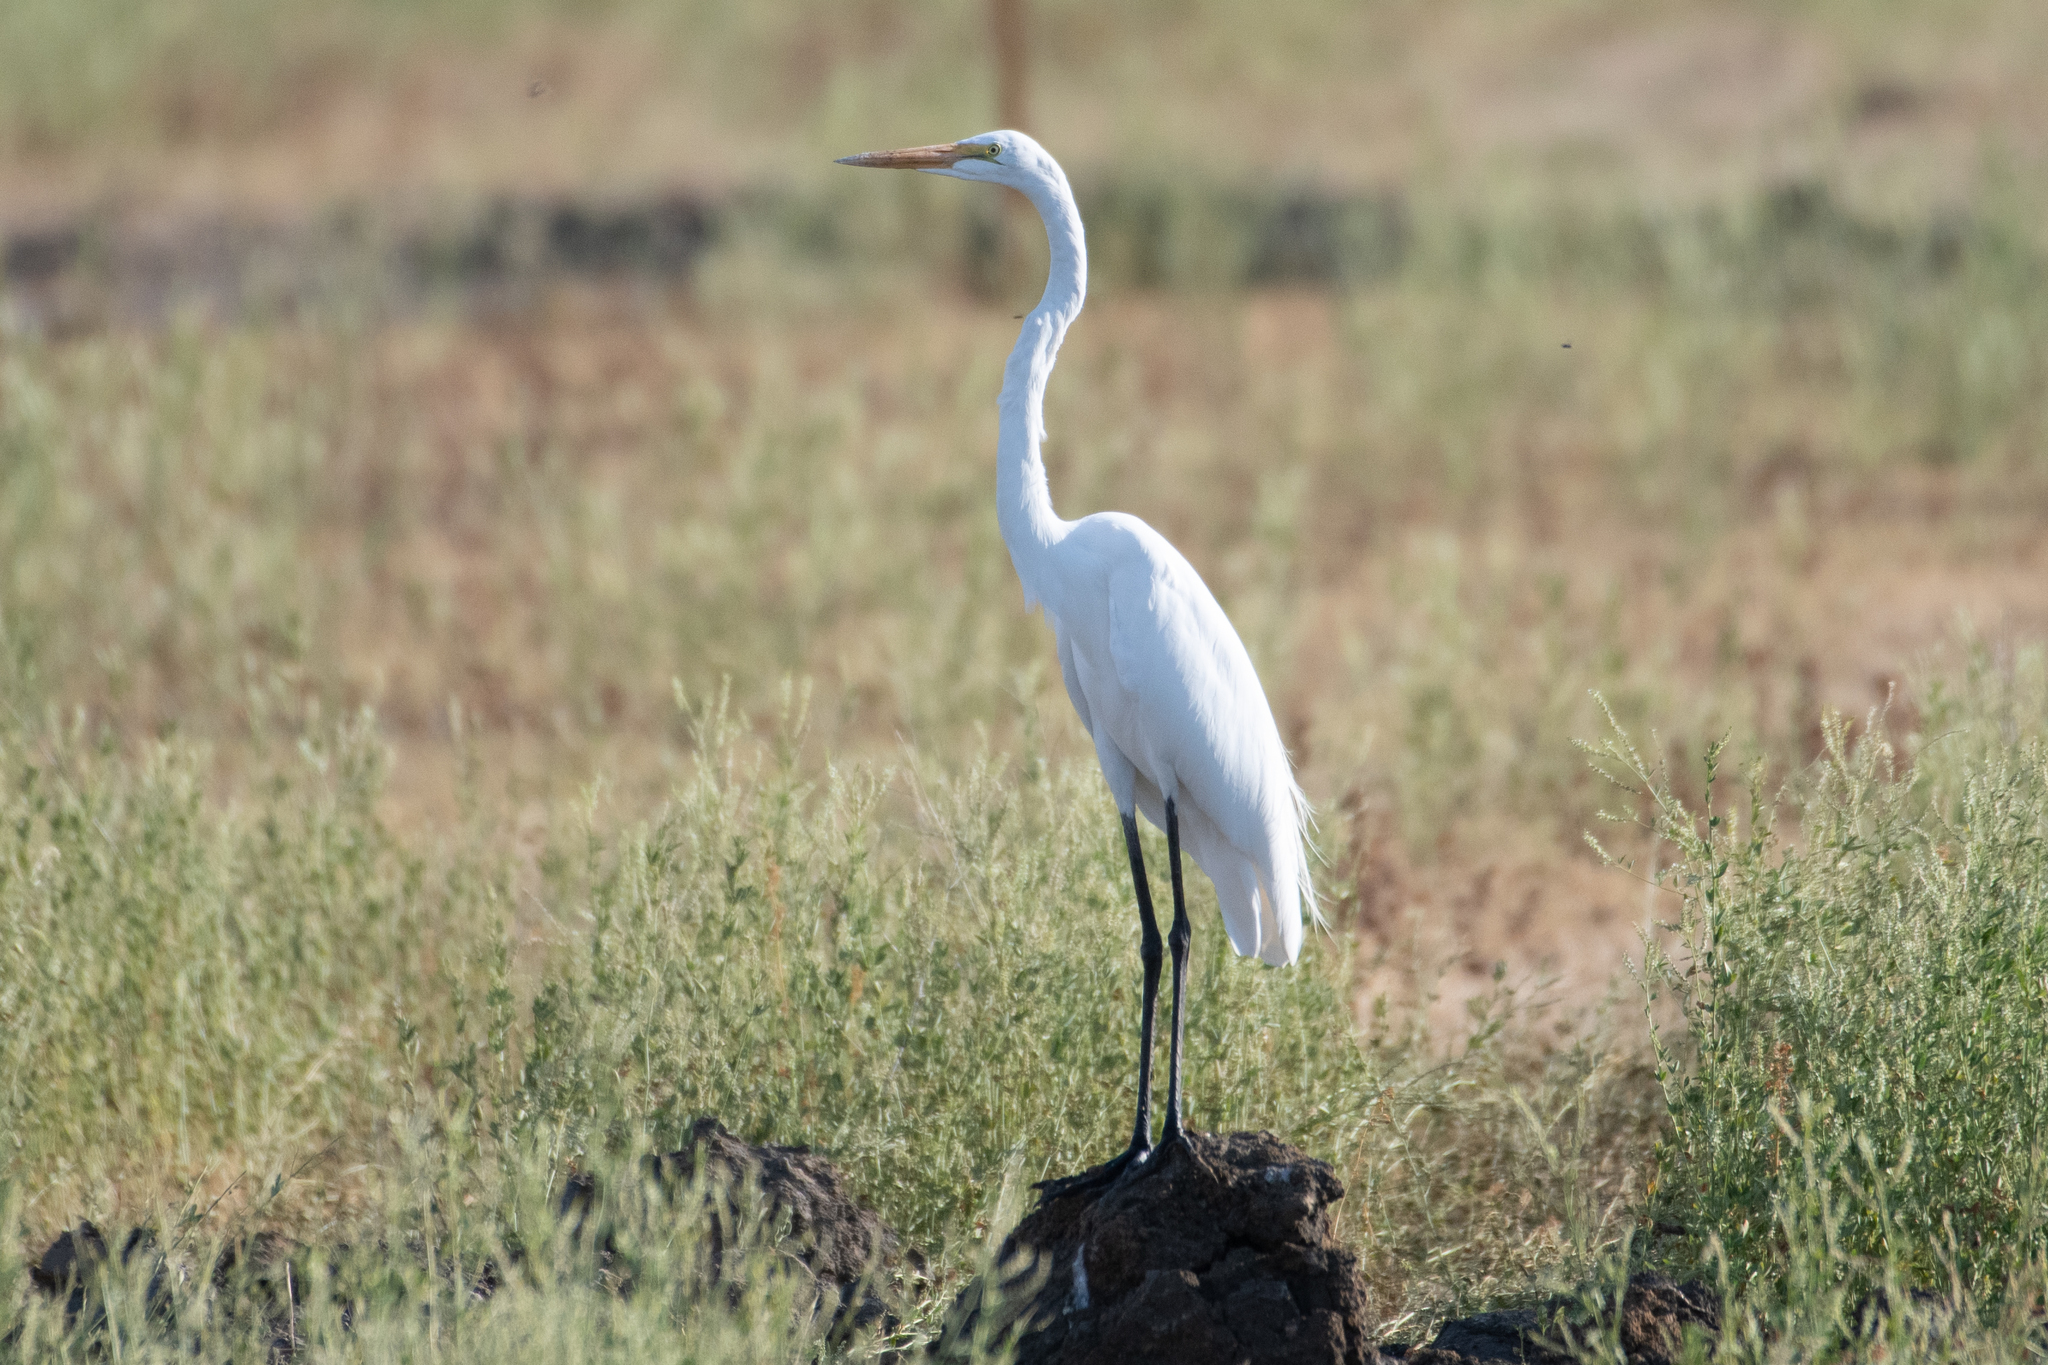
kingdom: Animalia
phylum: Chordata
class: Aves
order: Pelecaniformes
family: Ardeidae
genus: Ardea
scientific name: Ardea alba
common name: Great egret
